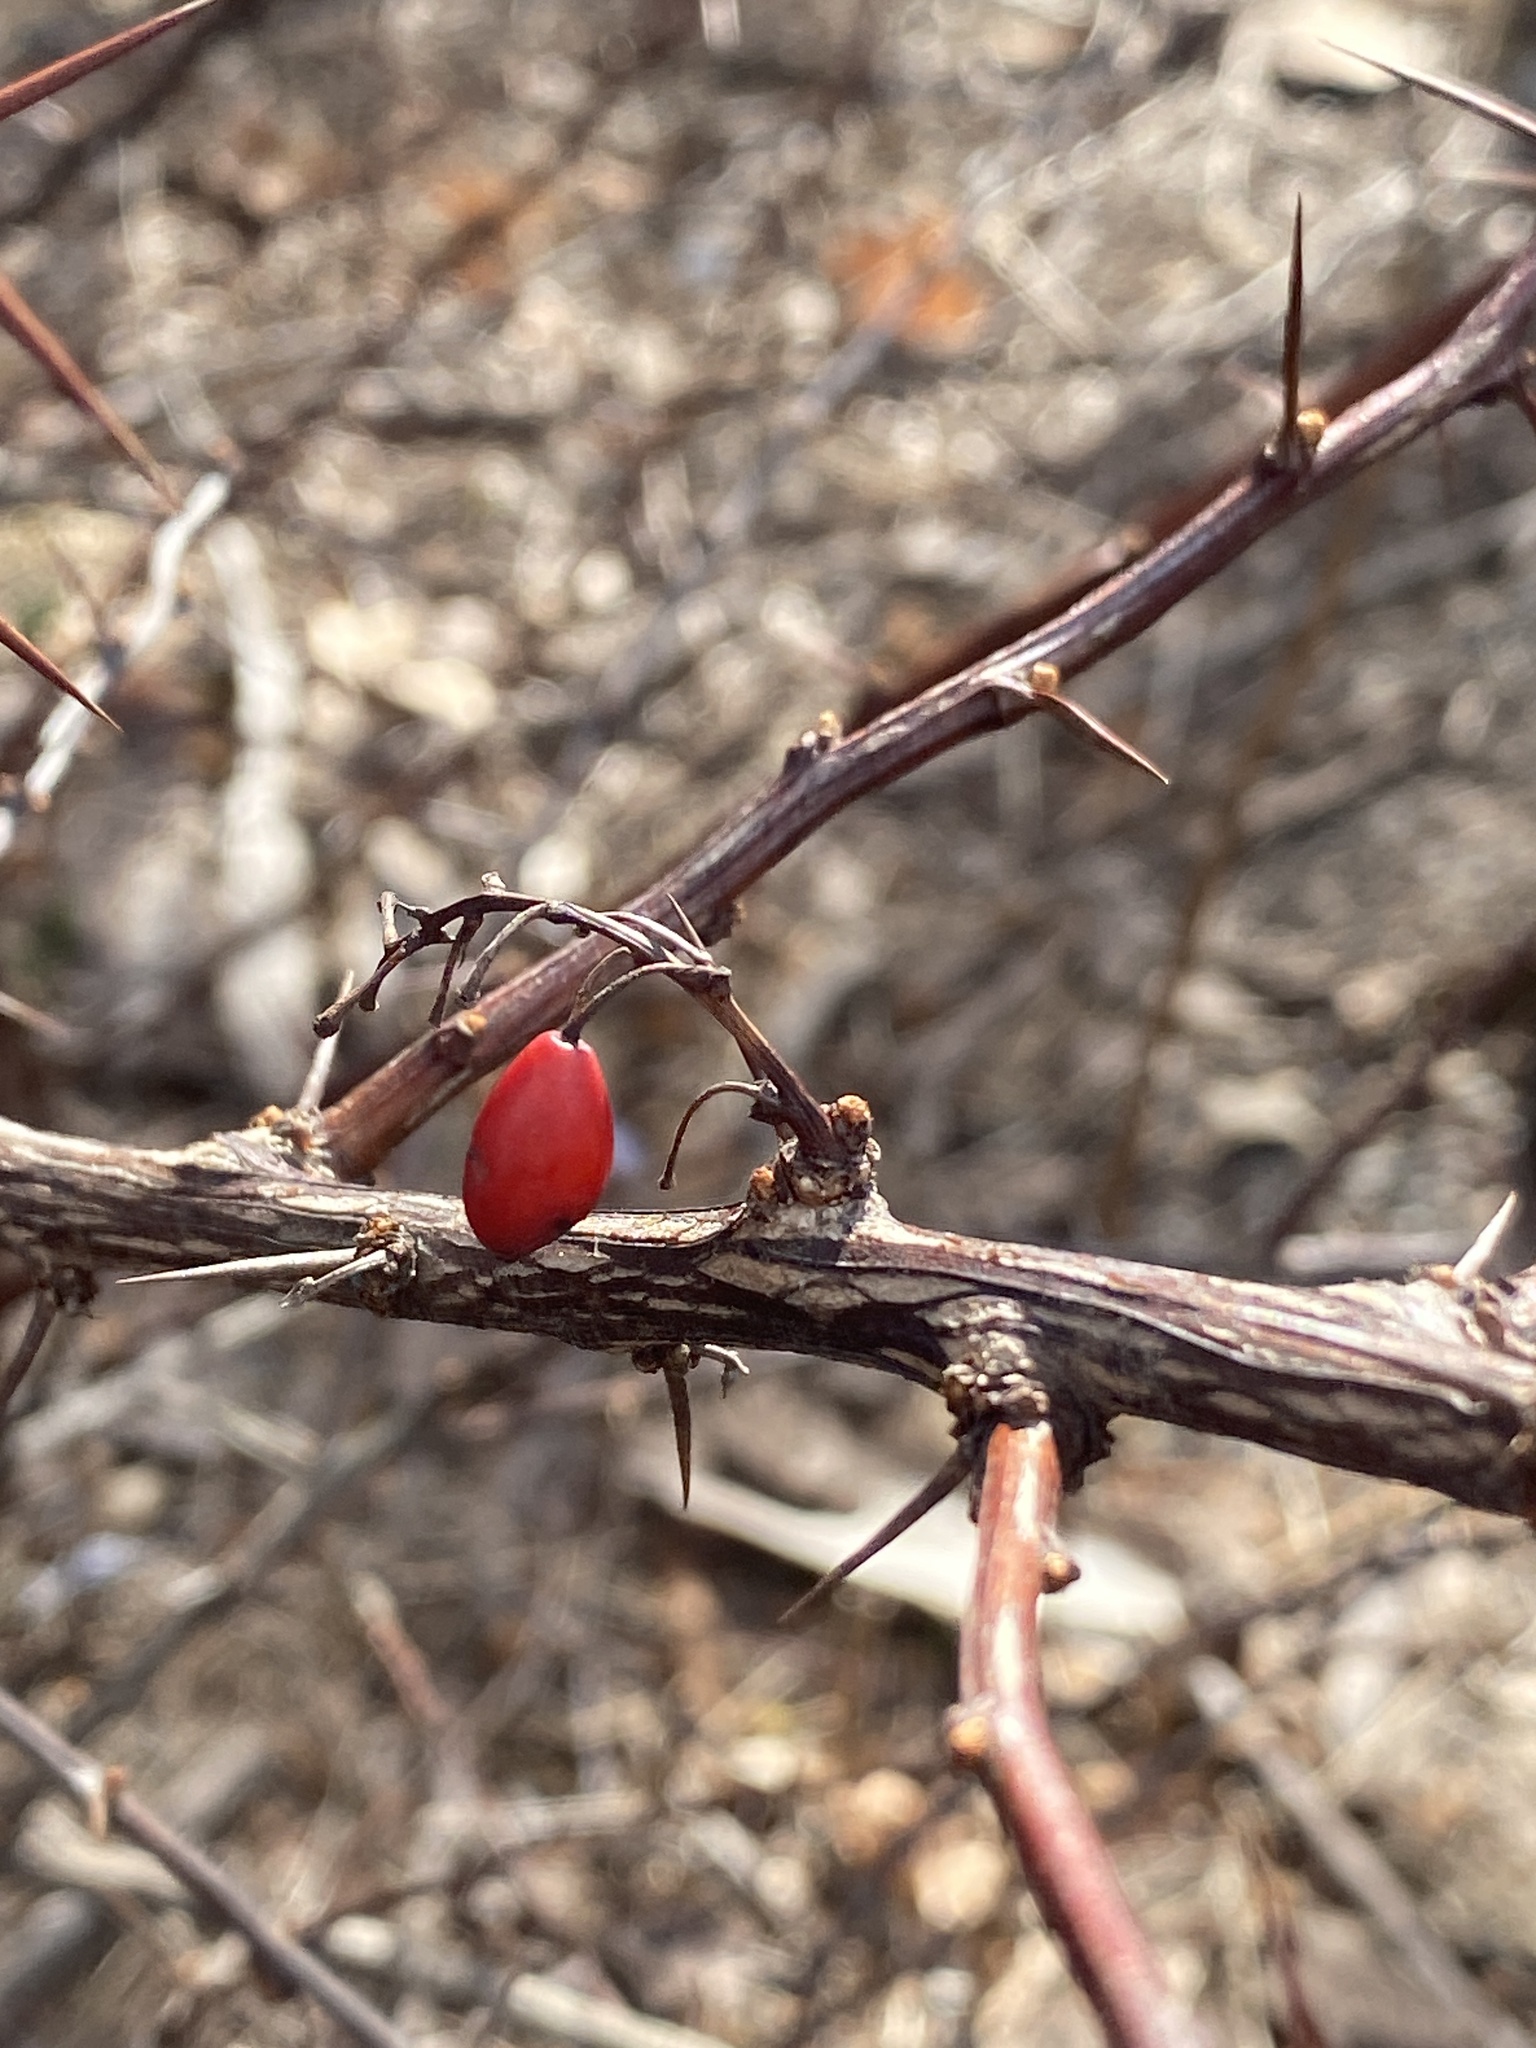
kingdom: Plantae
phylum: Tracheophyta
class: Magnoliopsida
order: Ranunculales
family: Berberidaceae
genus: Berberis
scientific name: Berberis thunbergii
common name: Japanese barberry
